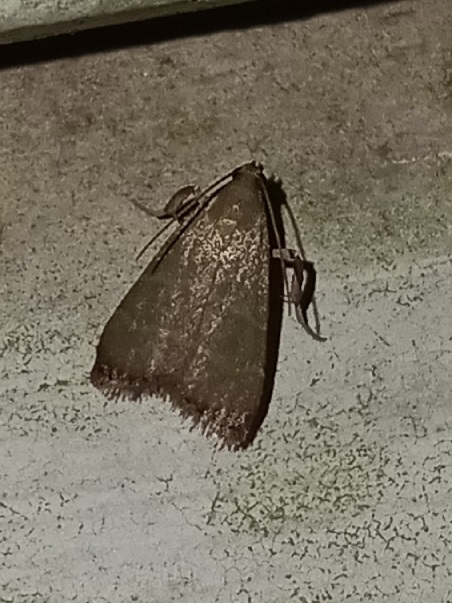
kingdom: Animalia
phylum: Arthropoda
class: Insecta
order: Lepidoptera
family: Pyralidae
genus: Arta
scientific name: Arta olivalis
